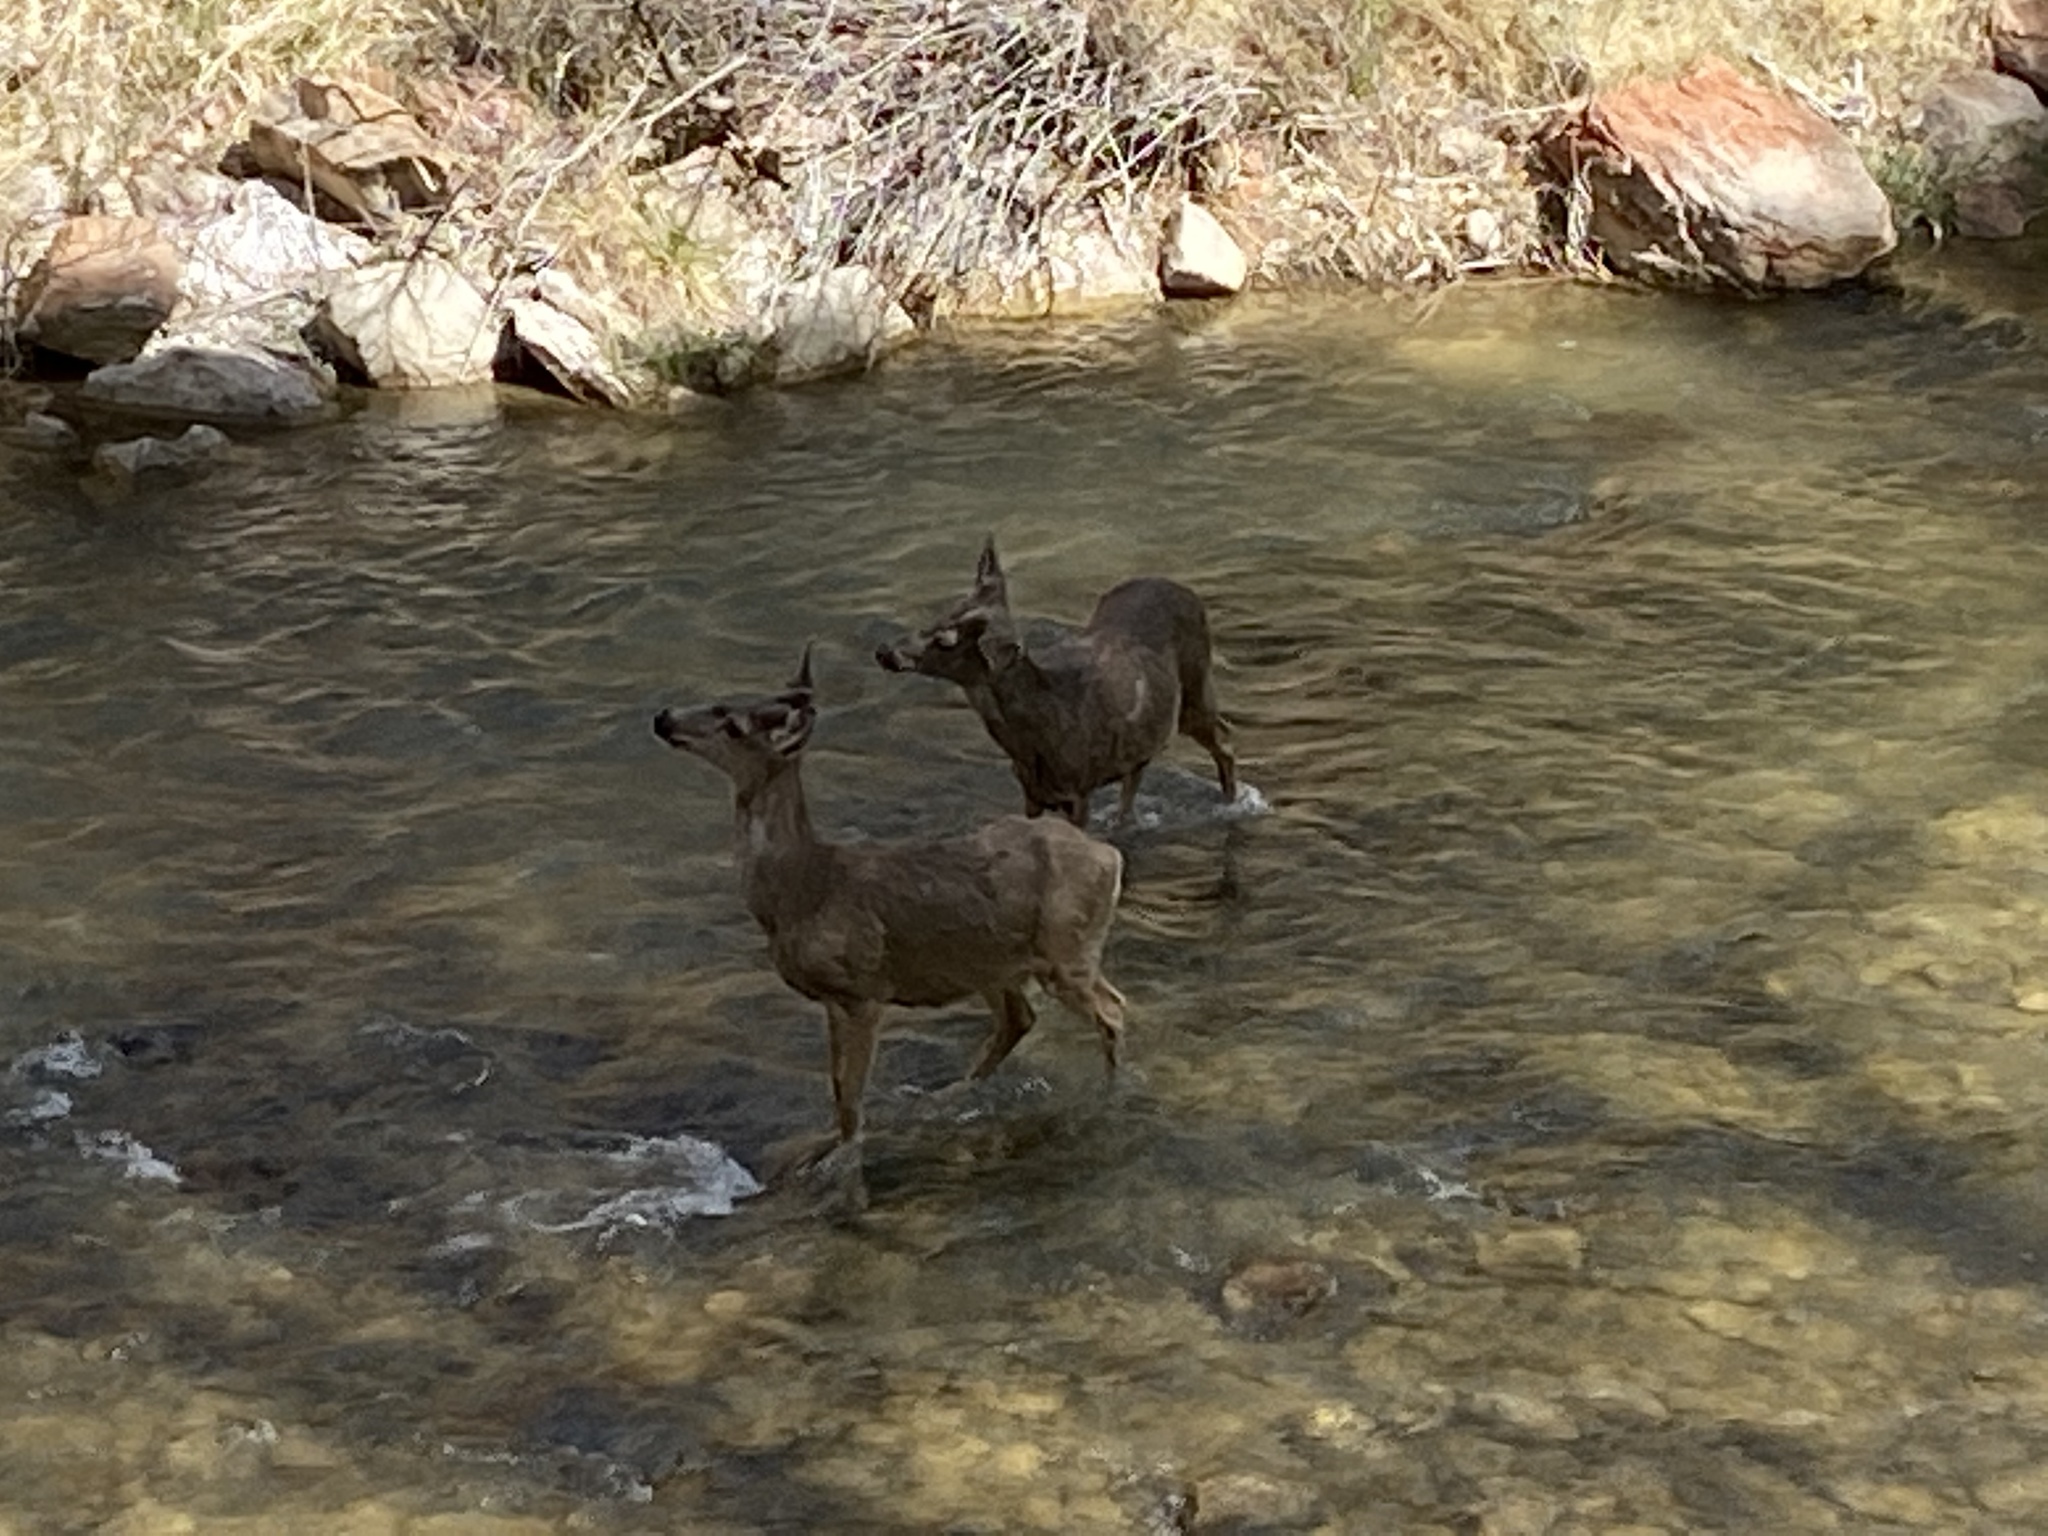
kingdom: Animalia
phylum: Chordata
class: Mammalia
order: Artiodactyla
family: Cervidae
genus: Odocoileus
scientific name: Odocoileus hemionus
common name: Mule deer
